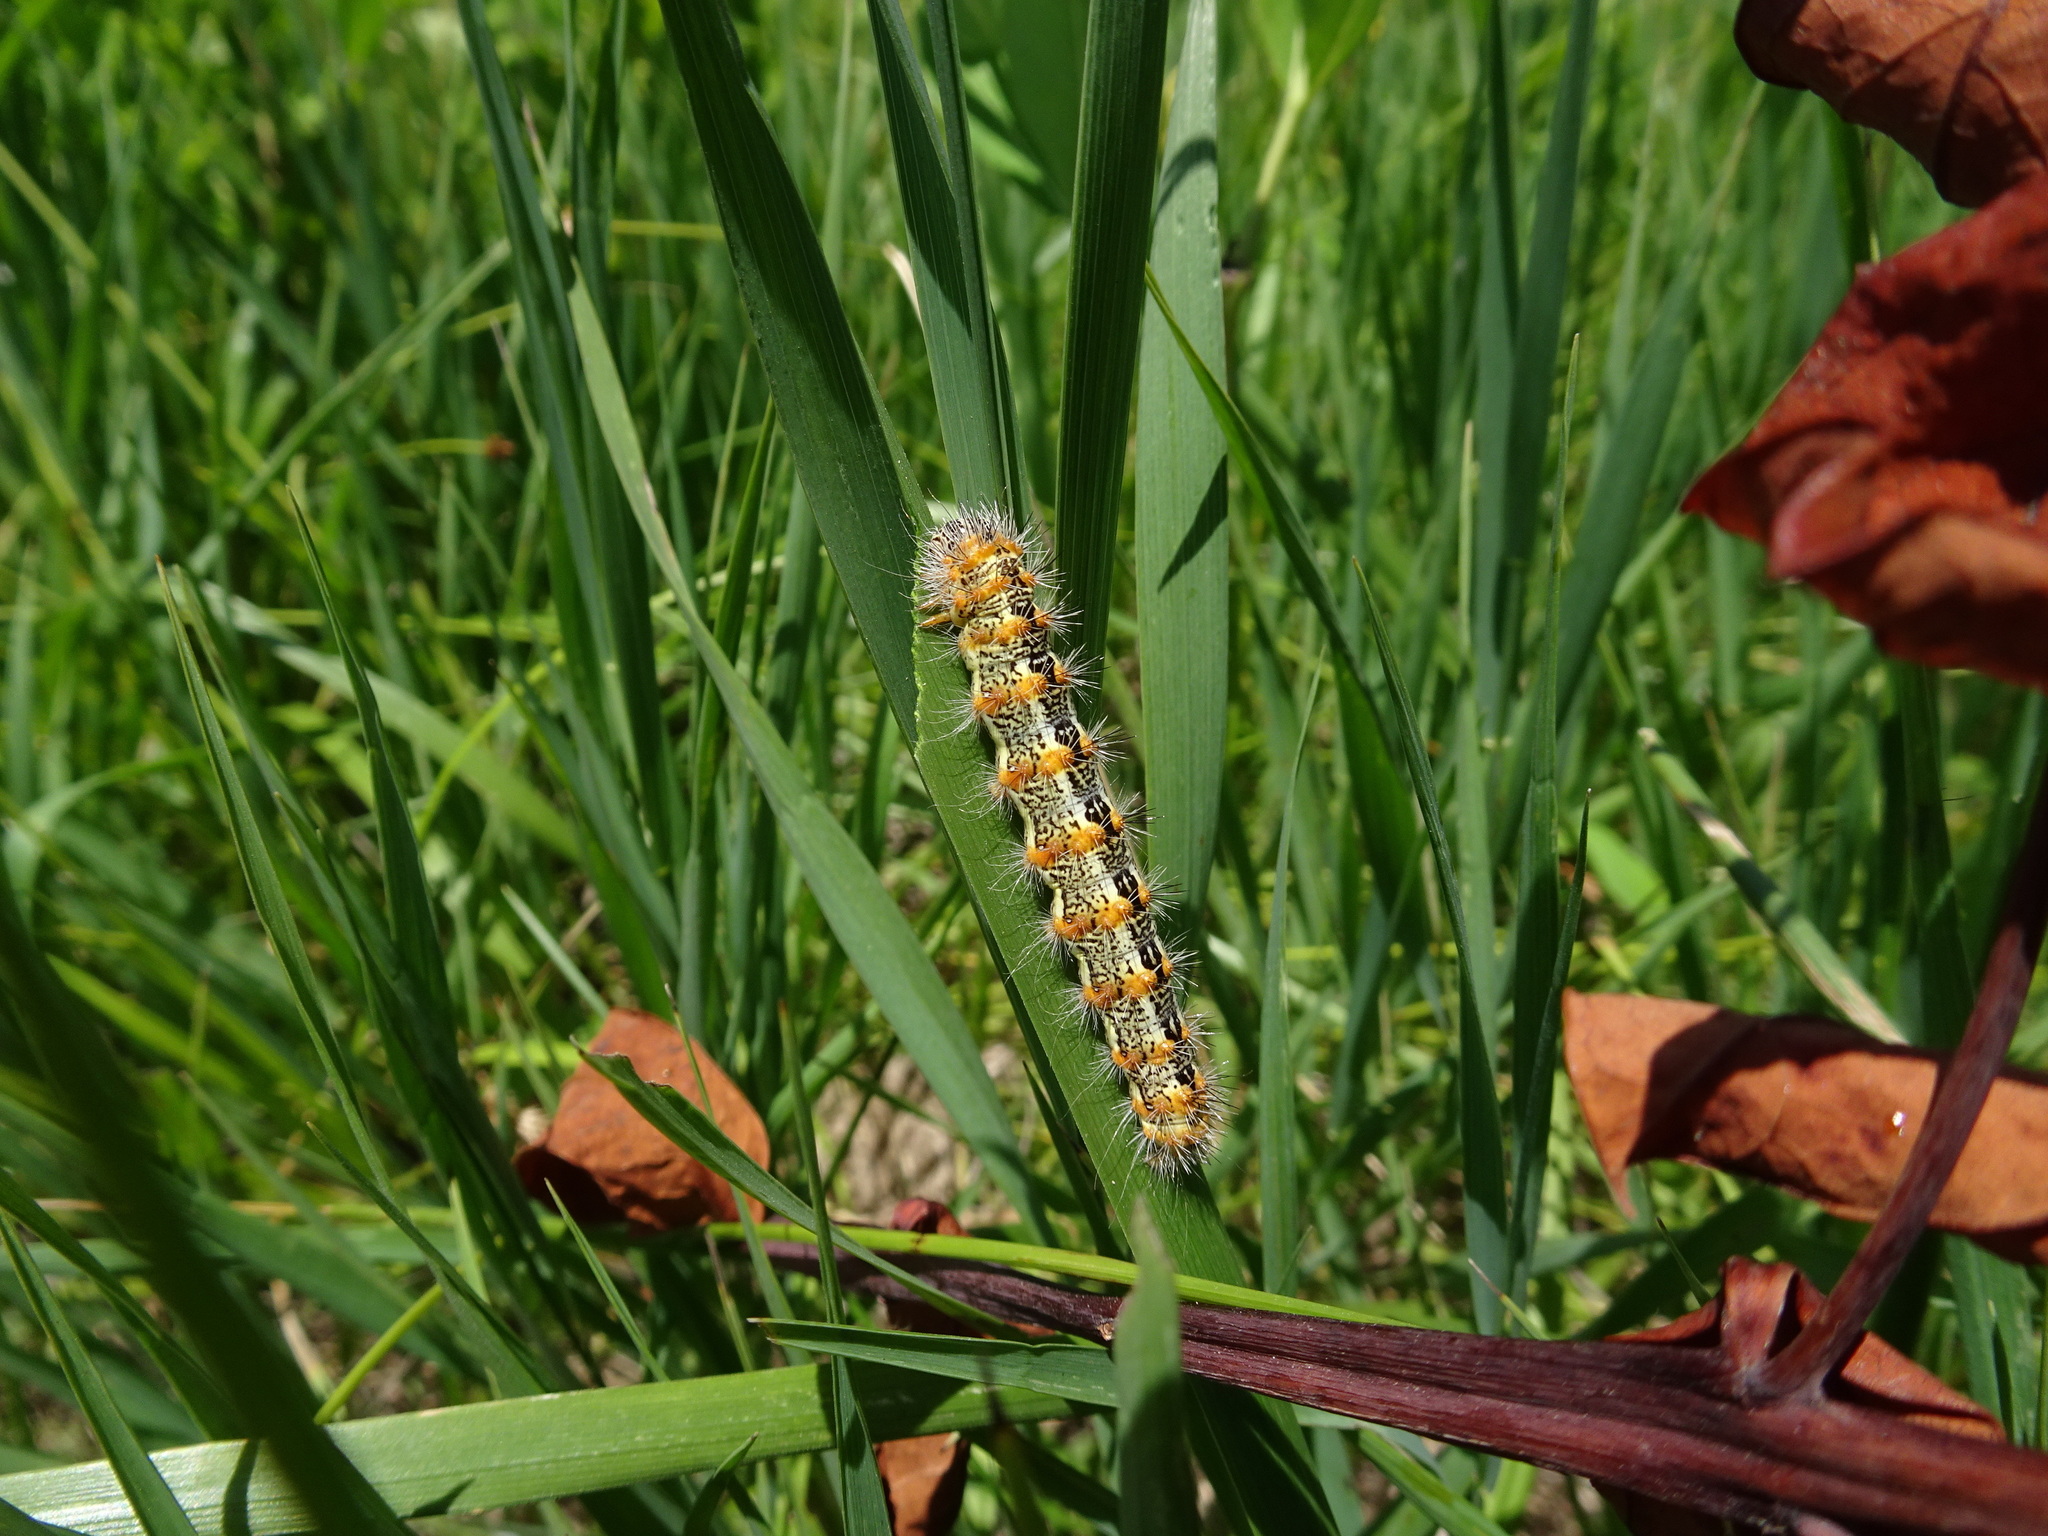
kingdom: Animalia
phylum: Arthropoda
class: Insecta
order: Lepidoptera
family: Noctuidae
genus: Acronicta
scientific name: Acronicta insularis
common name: Henry's marsh moth
